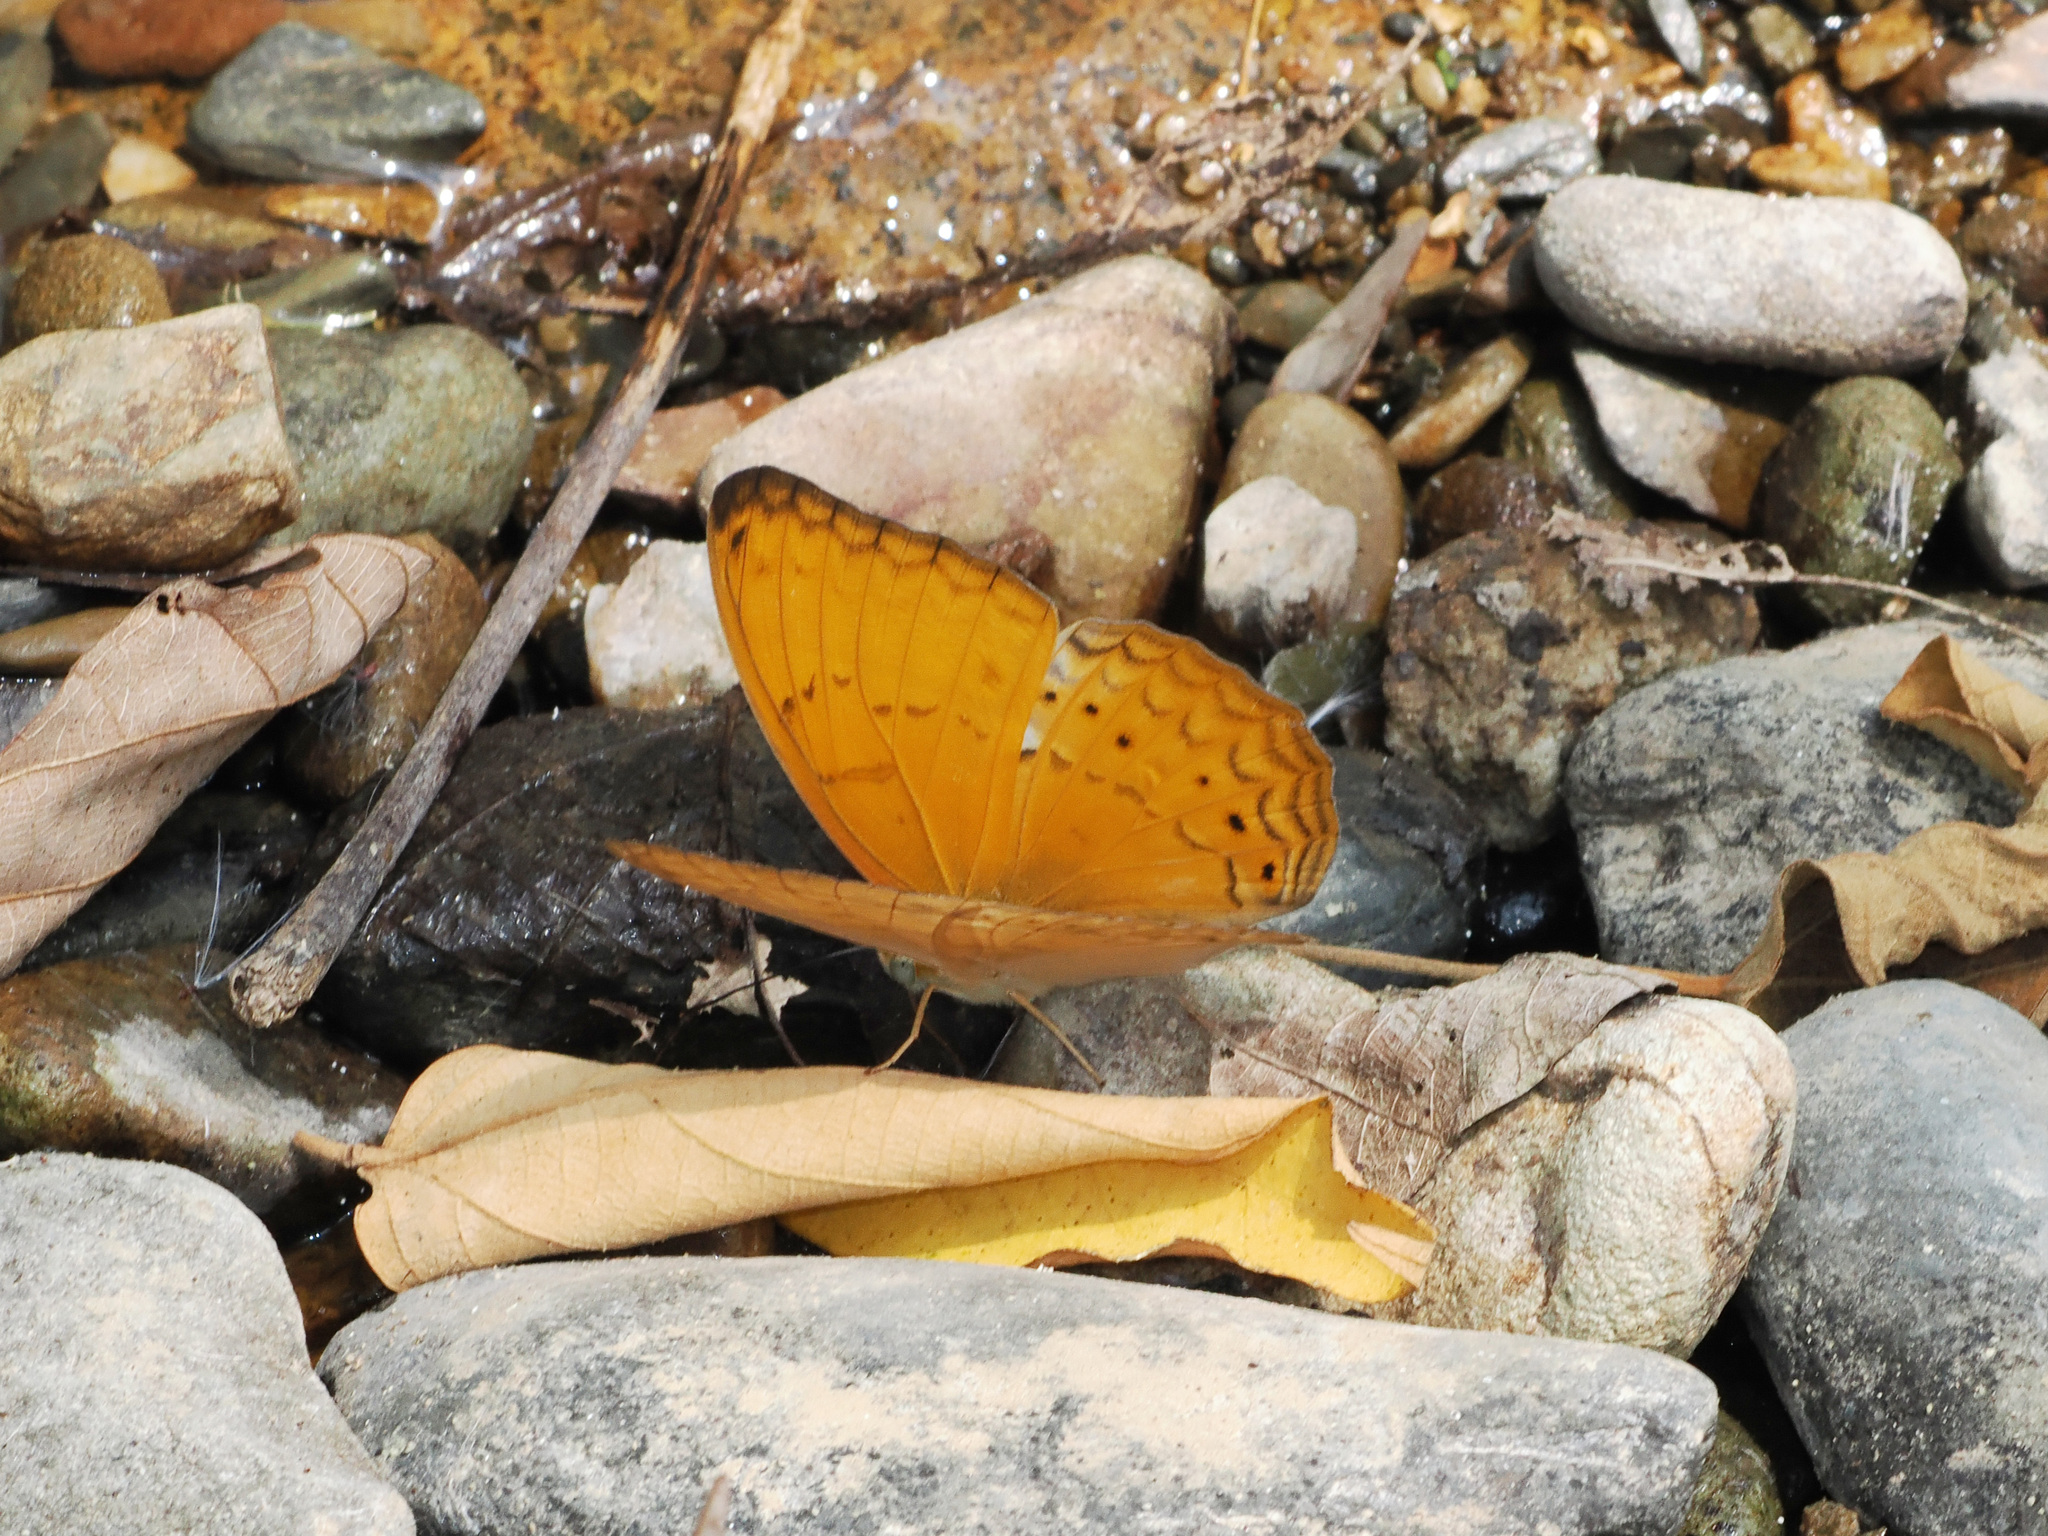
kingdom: Animalia
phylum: Arthropoda
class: Insecta
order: Lepidoptera
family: Nymphalidae
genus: Cirrochroa
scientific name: Cirrochroa tyche
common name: Common yeoman
